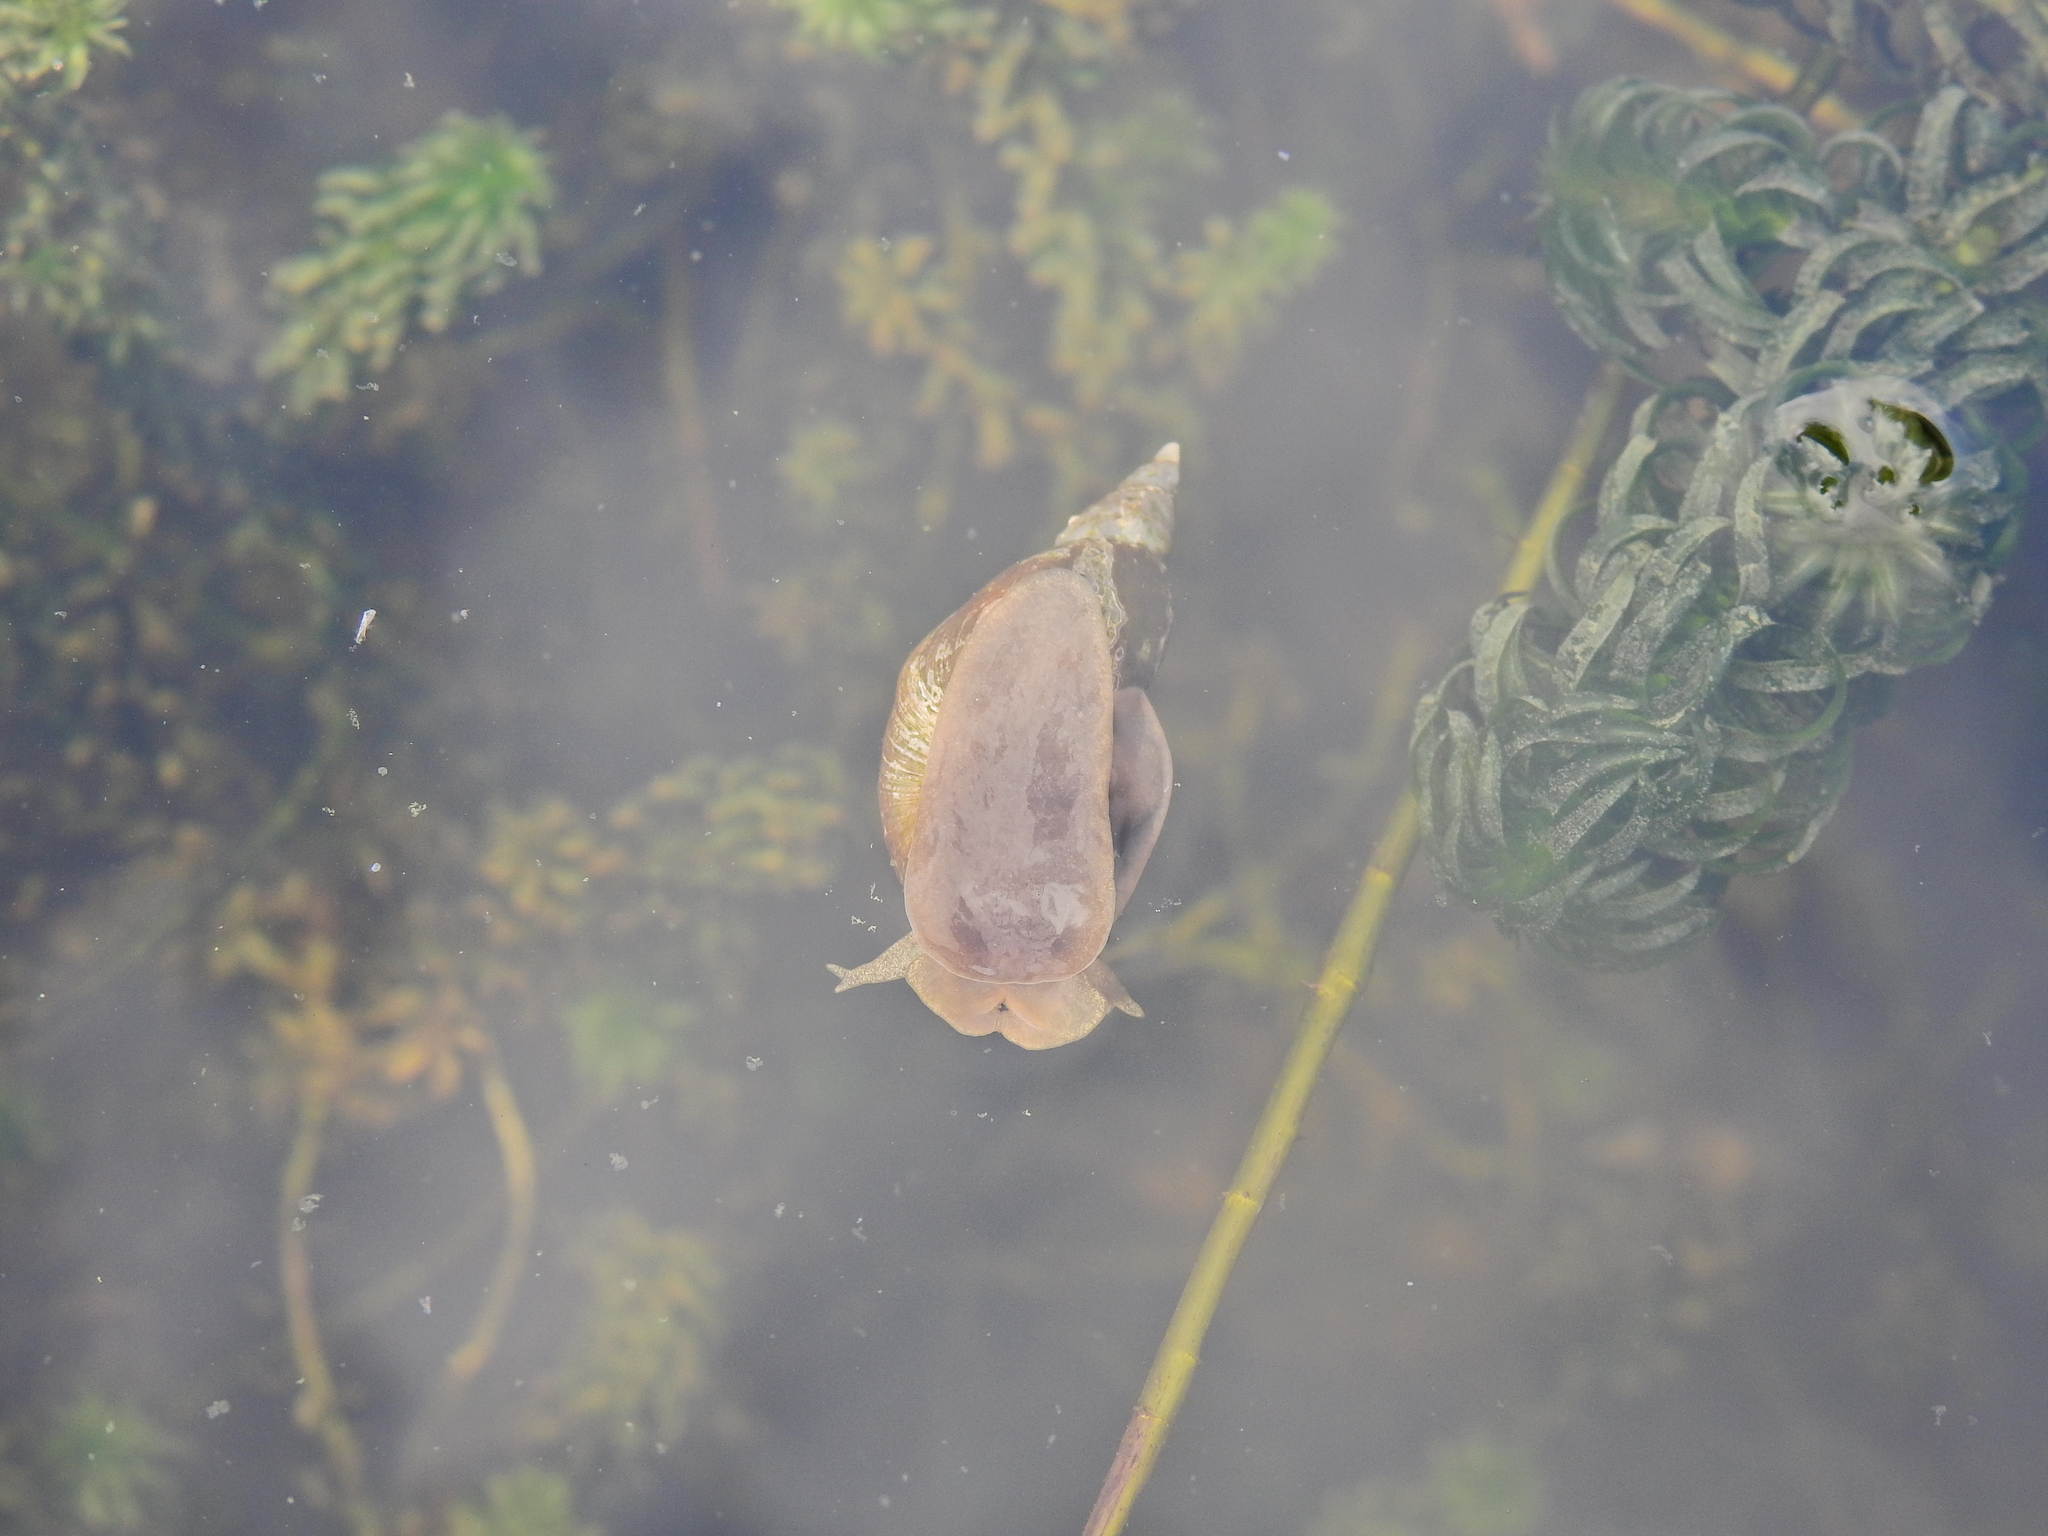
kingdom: Animalia
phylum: Mollusca
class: Gastropoda
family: Lymnaeidae
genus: Lymnaea
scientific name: Lymnaea stagnalis
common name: Great pond snail
